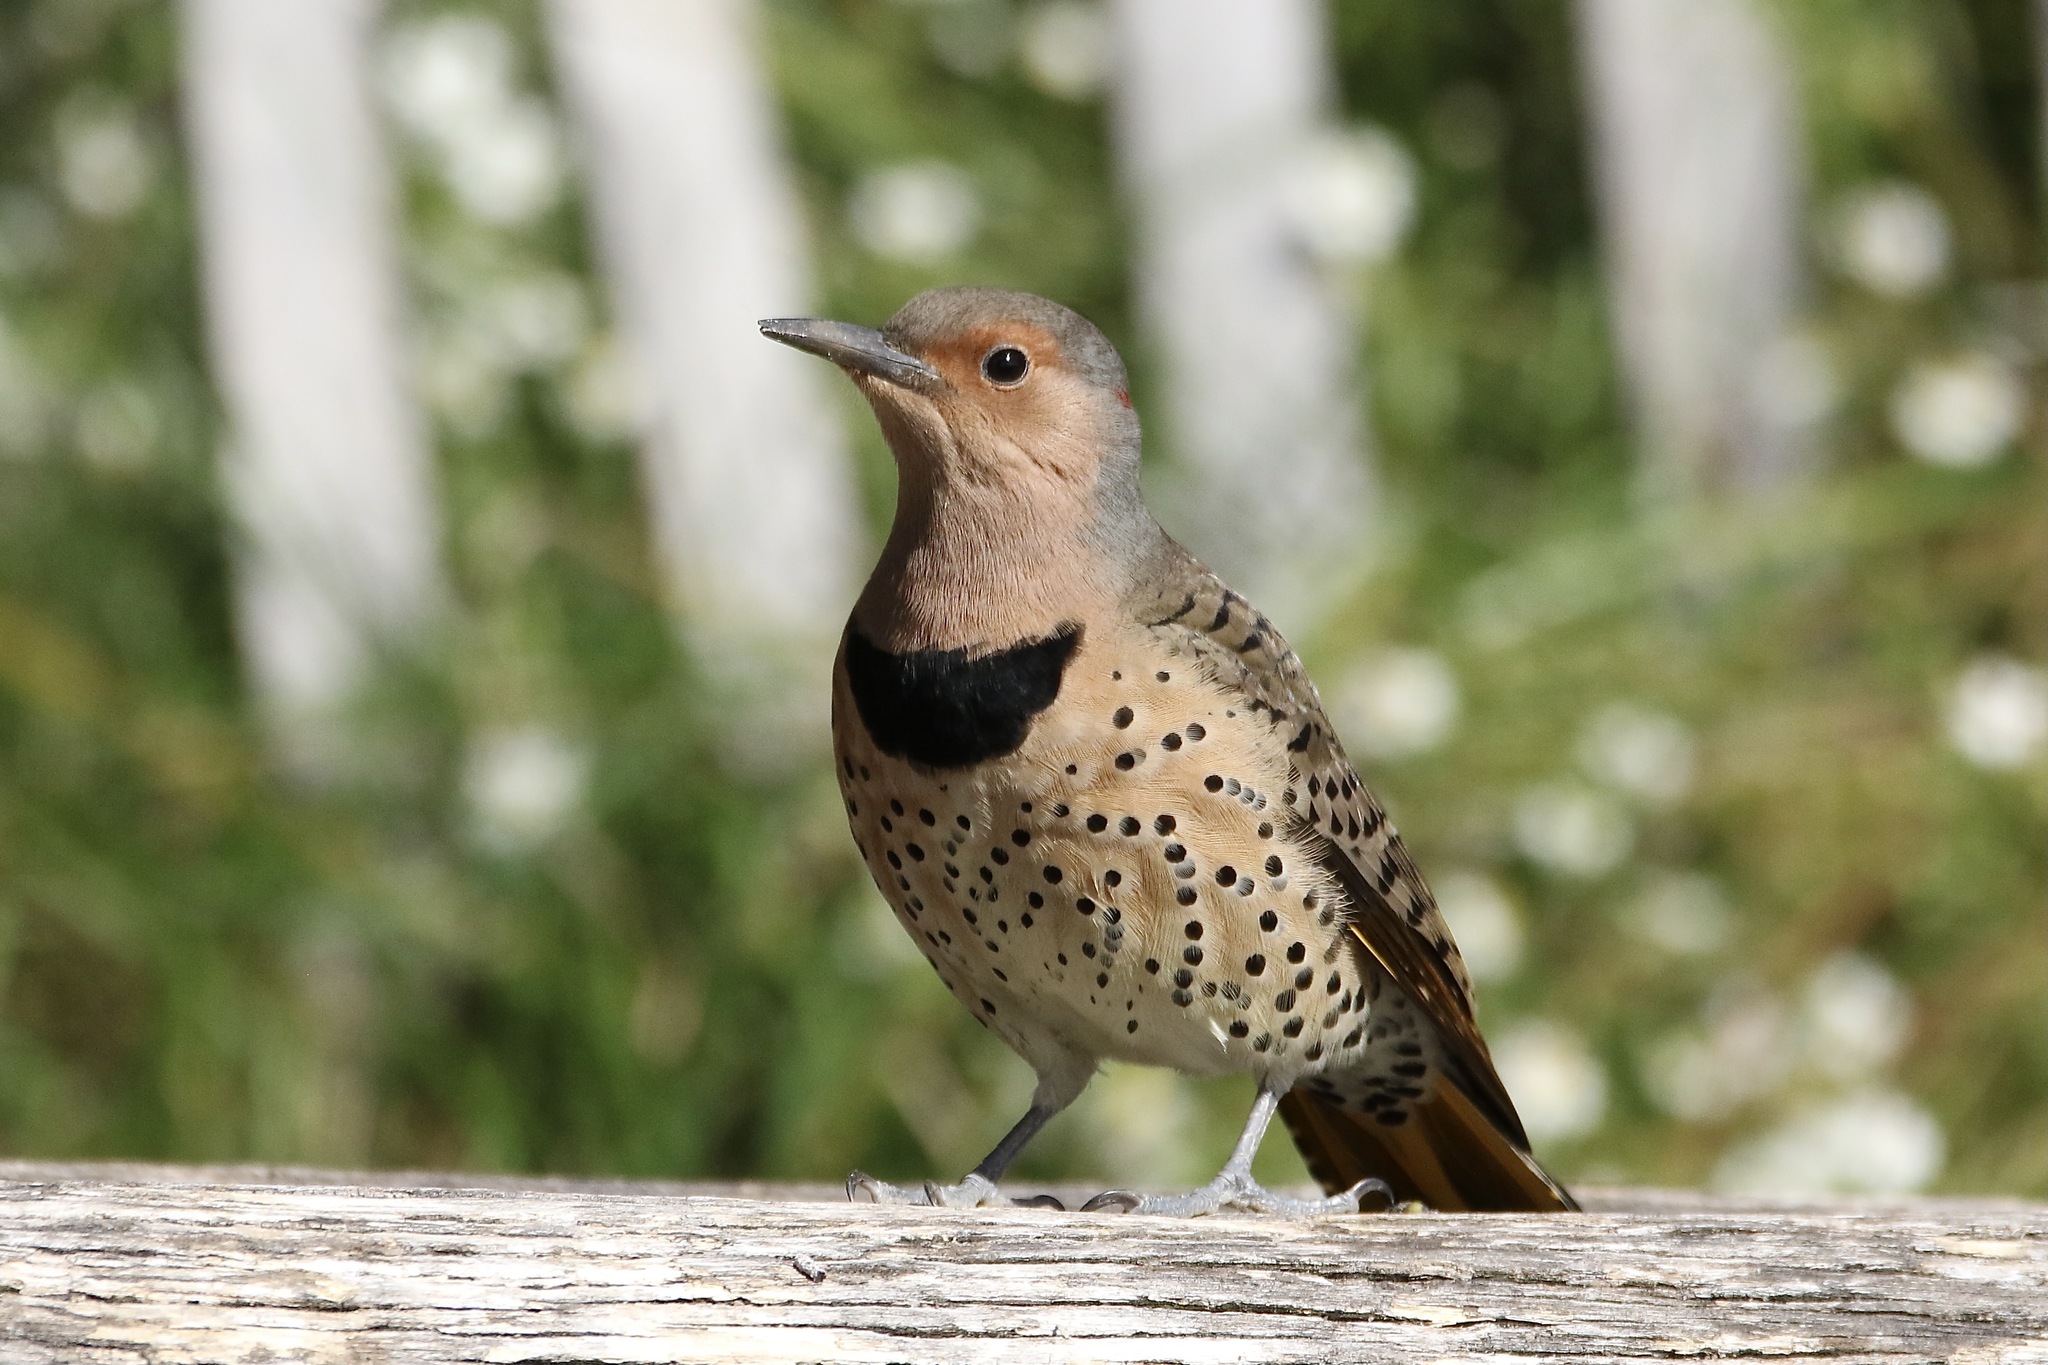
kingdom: Animalia
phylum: Chordata
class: Aves
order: Piciformes
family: Picidae
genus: Colaptes
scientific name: Colaptes auratus
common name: Northern flicker
